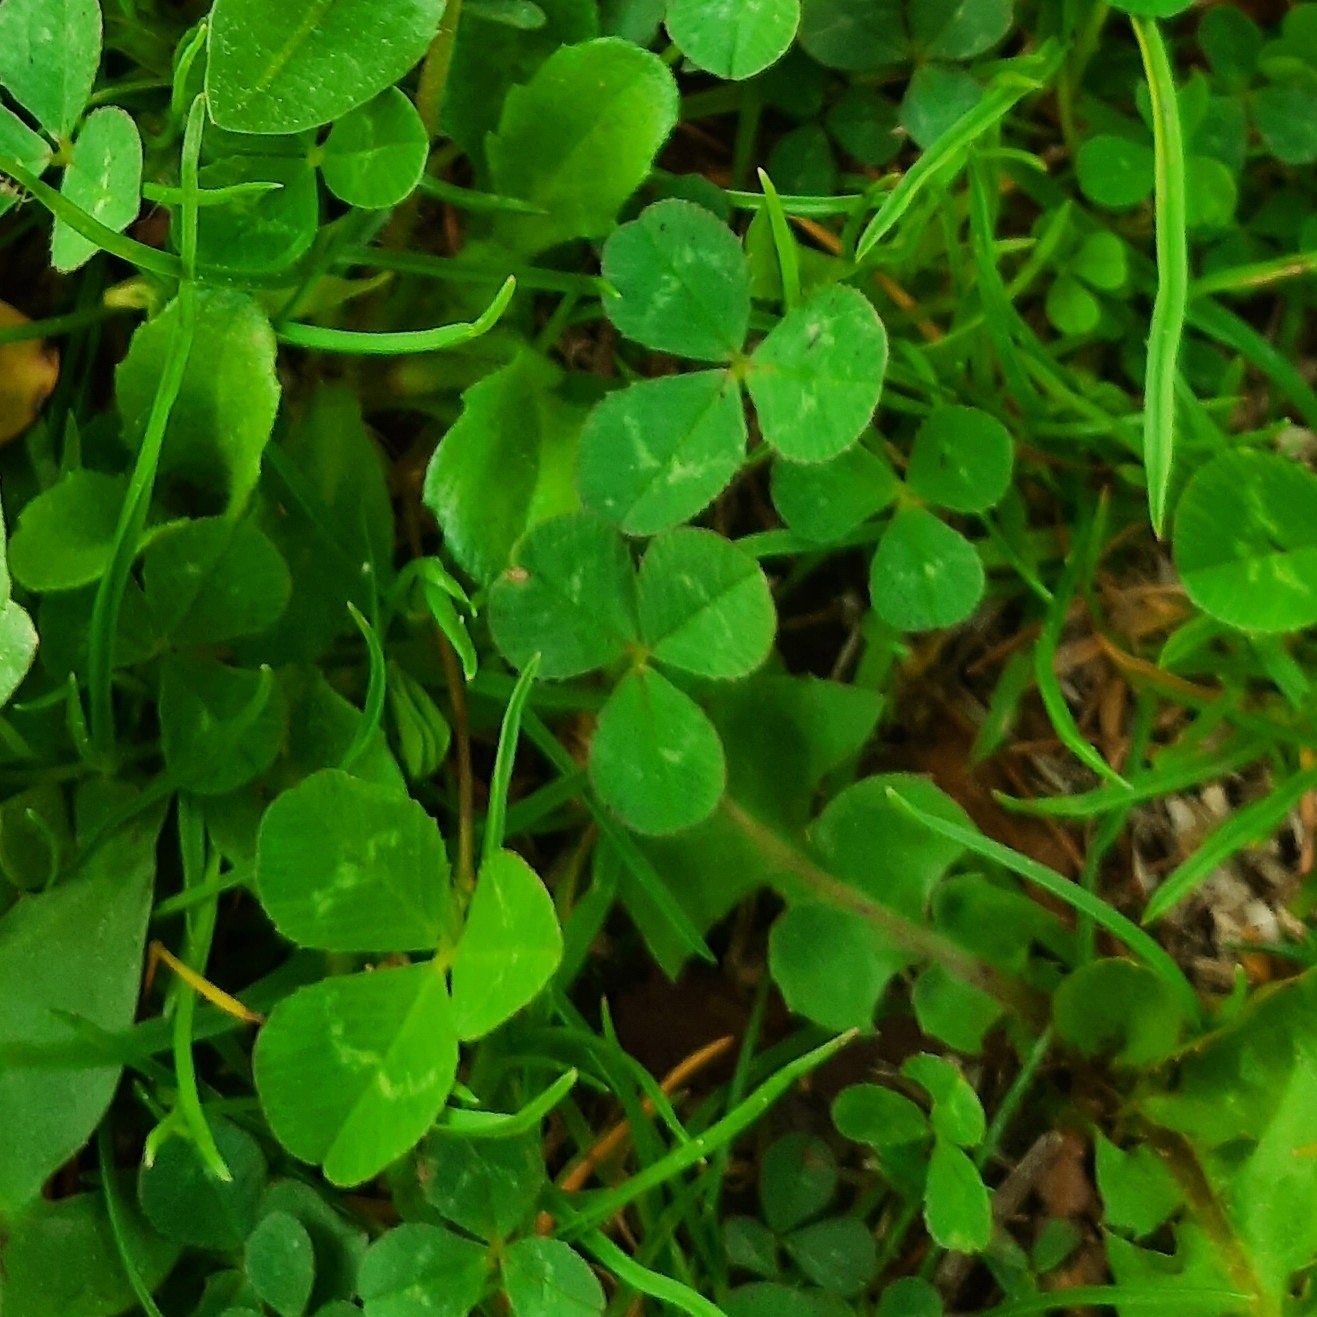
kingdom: Plantae
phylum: Tracheophyta
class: Magnoliopsida
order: Fabales
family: Fabaceae
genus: Trifolium
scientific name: Trifolium repens
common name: White clover
